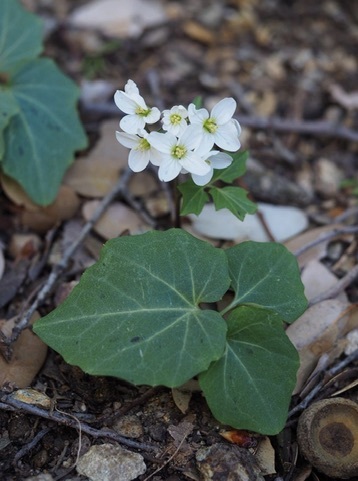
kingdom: Plantae
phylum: Tracheophyta
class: Magnoliopsida
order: Brassicales
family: Brassicaceae
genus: Cardamine
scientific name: Cardamine californica
